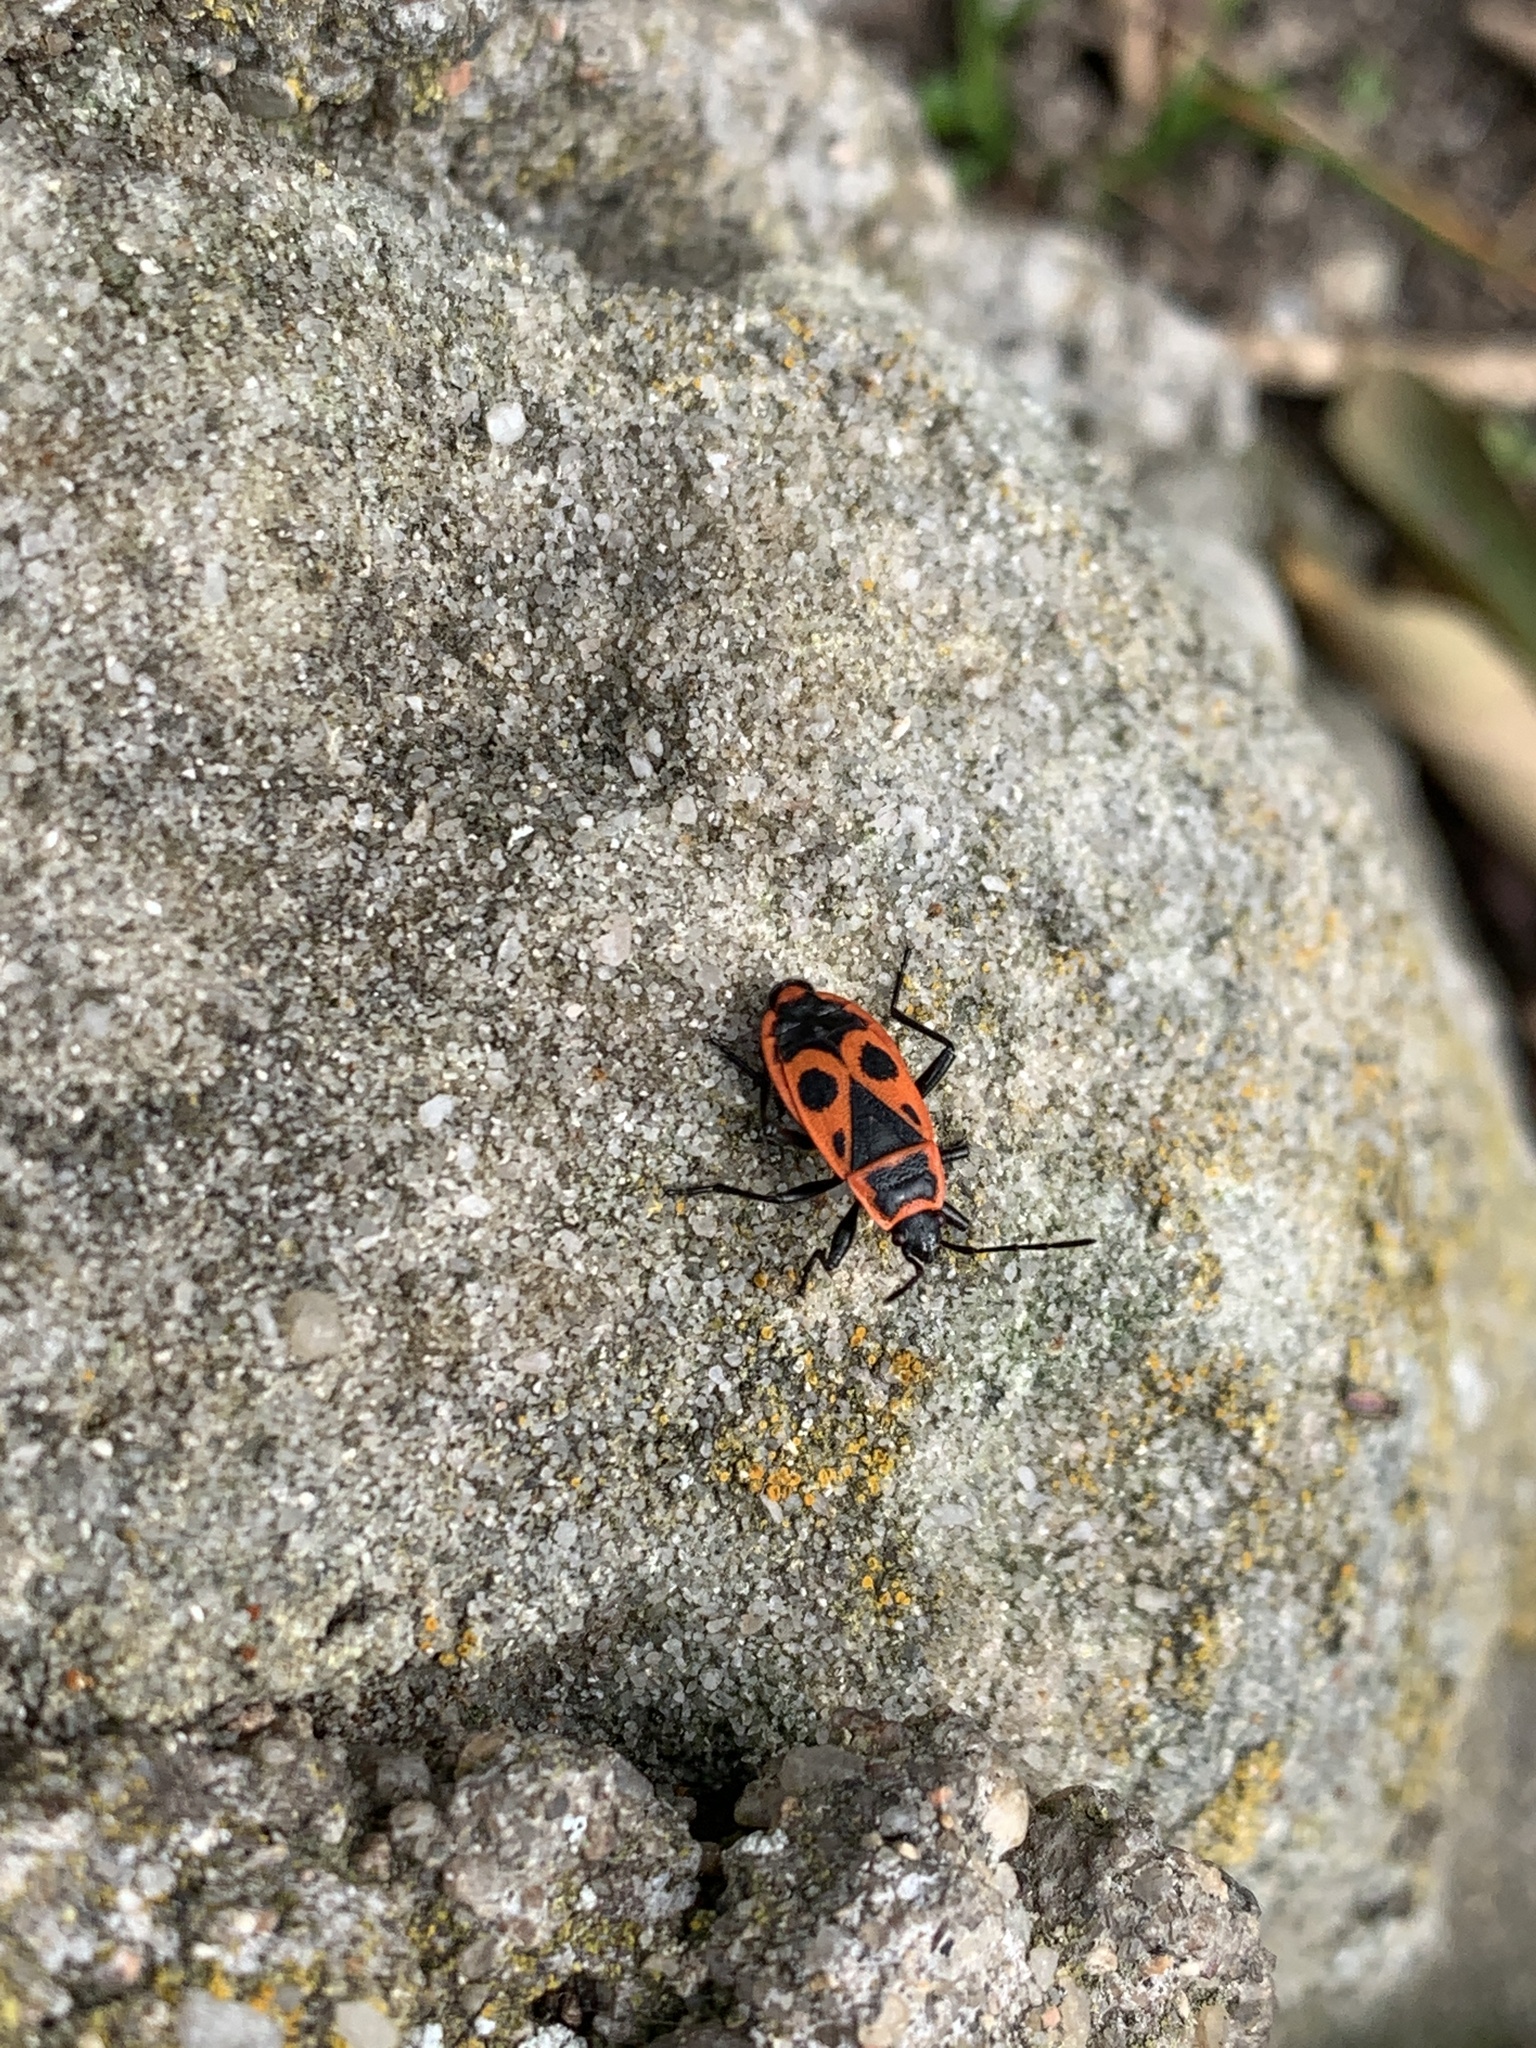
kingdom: Animalia
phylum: Arthropoda
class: Insecta
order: Hemiptera
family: Pyrrhocoridae
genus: Pyrrhocoris
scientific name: Pyrrhocoris apterus
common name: Firebug
